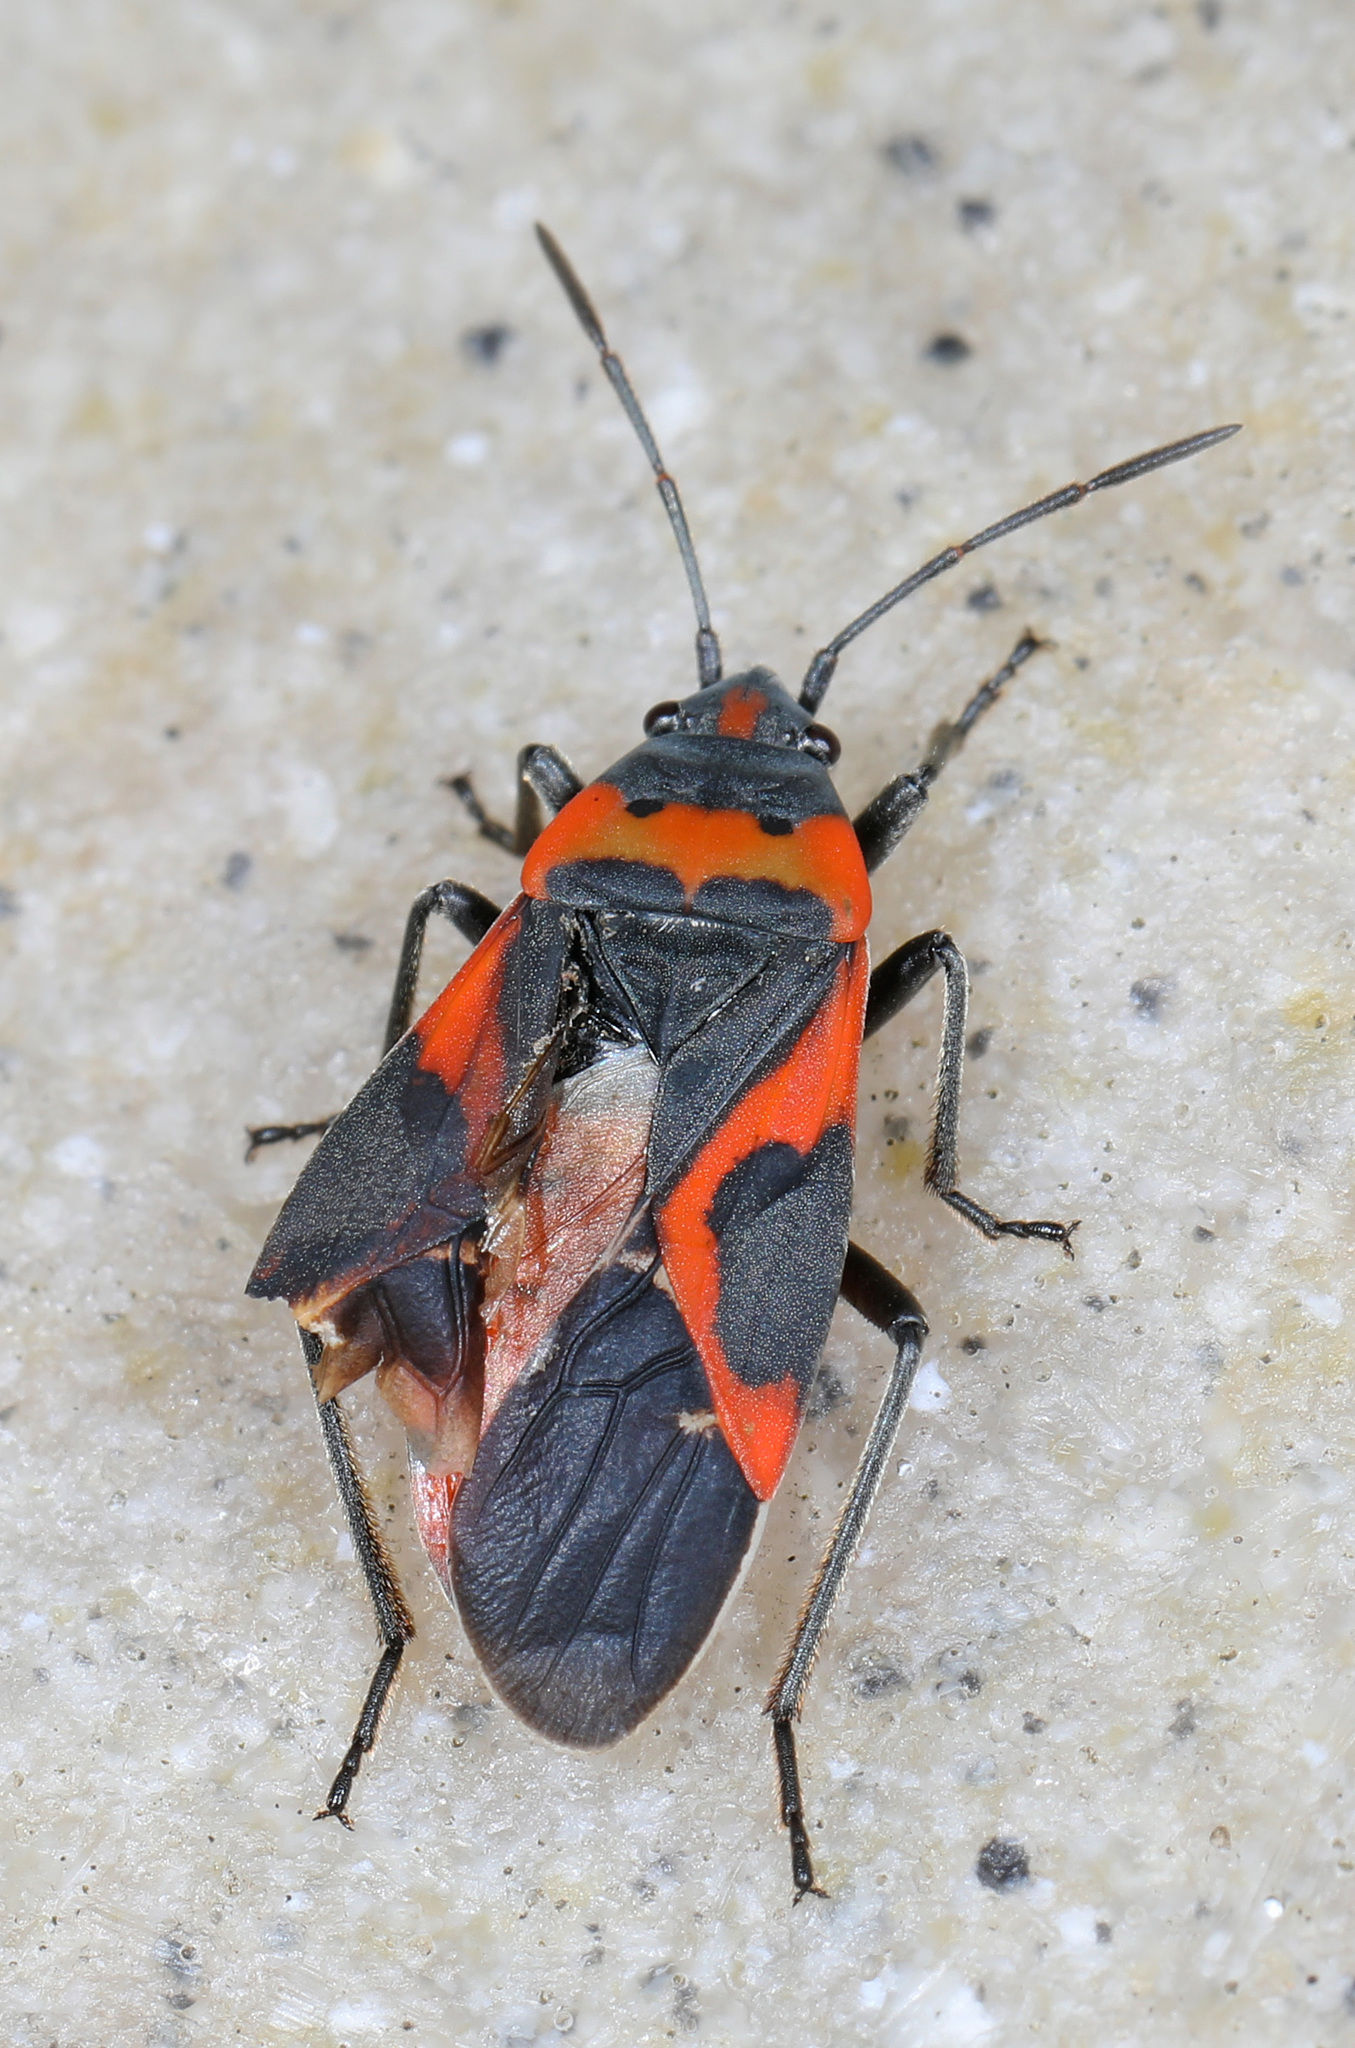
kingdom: Animalia
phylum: Arthropoda
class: Insecta
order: Hemiptera
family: Lygaeidae
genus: Lygaeus
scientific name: Lygaeus kalmii
